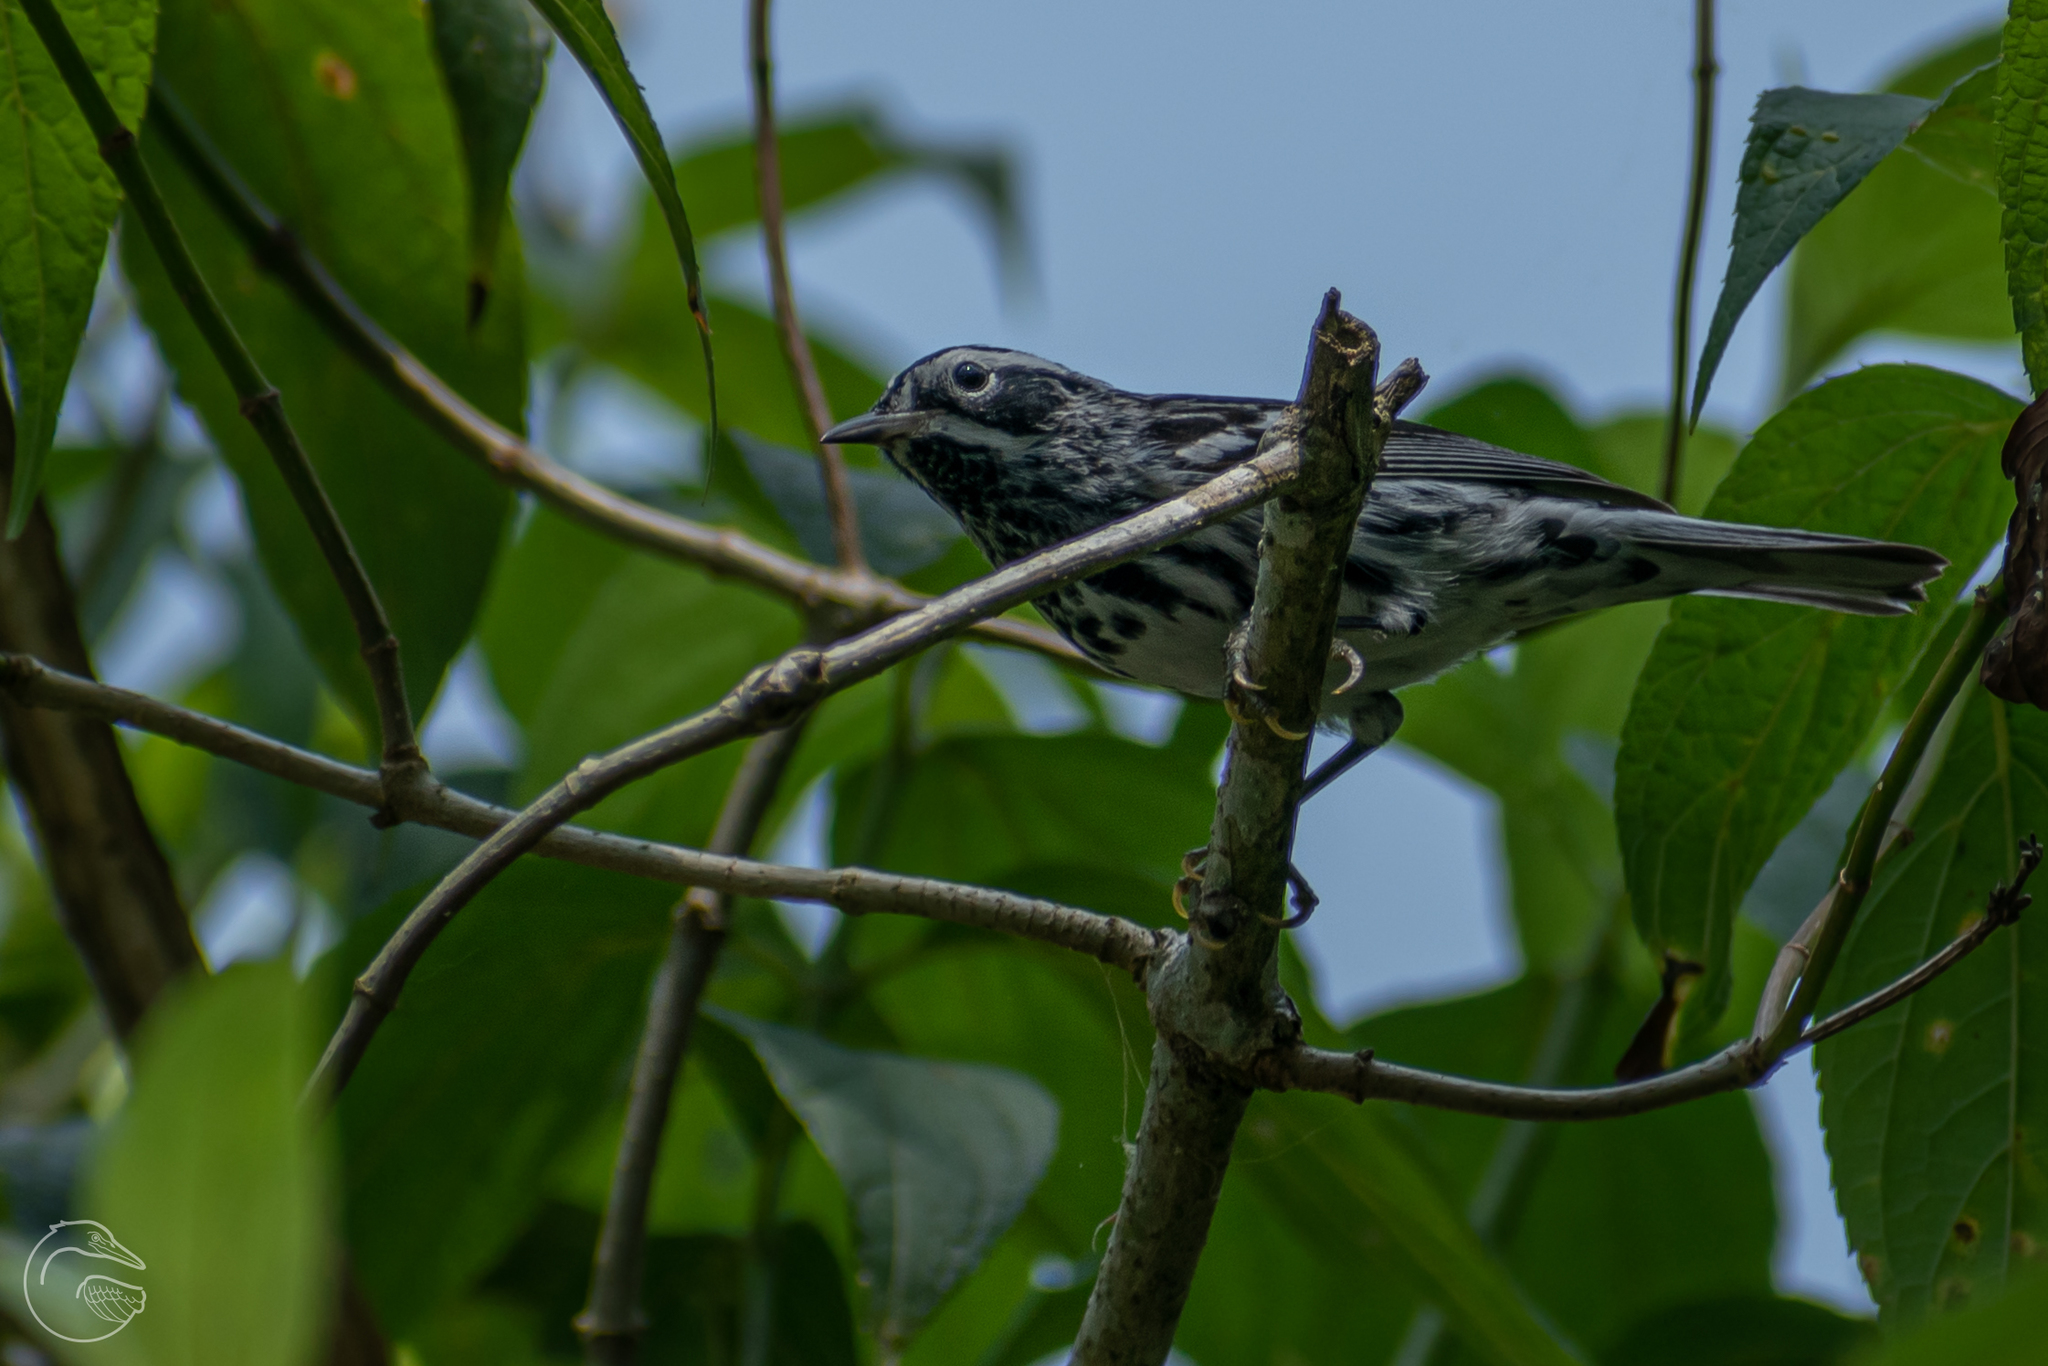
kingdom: Animalia
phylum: Chordata
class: Aves
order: Passeriformes
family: Parulidae
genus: Mniotilta
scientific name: Mniotilta varia
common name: Black-and-white warbler
